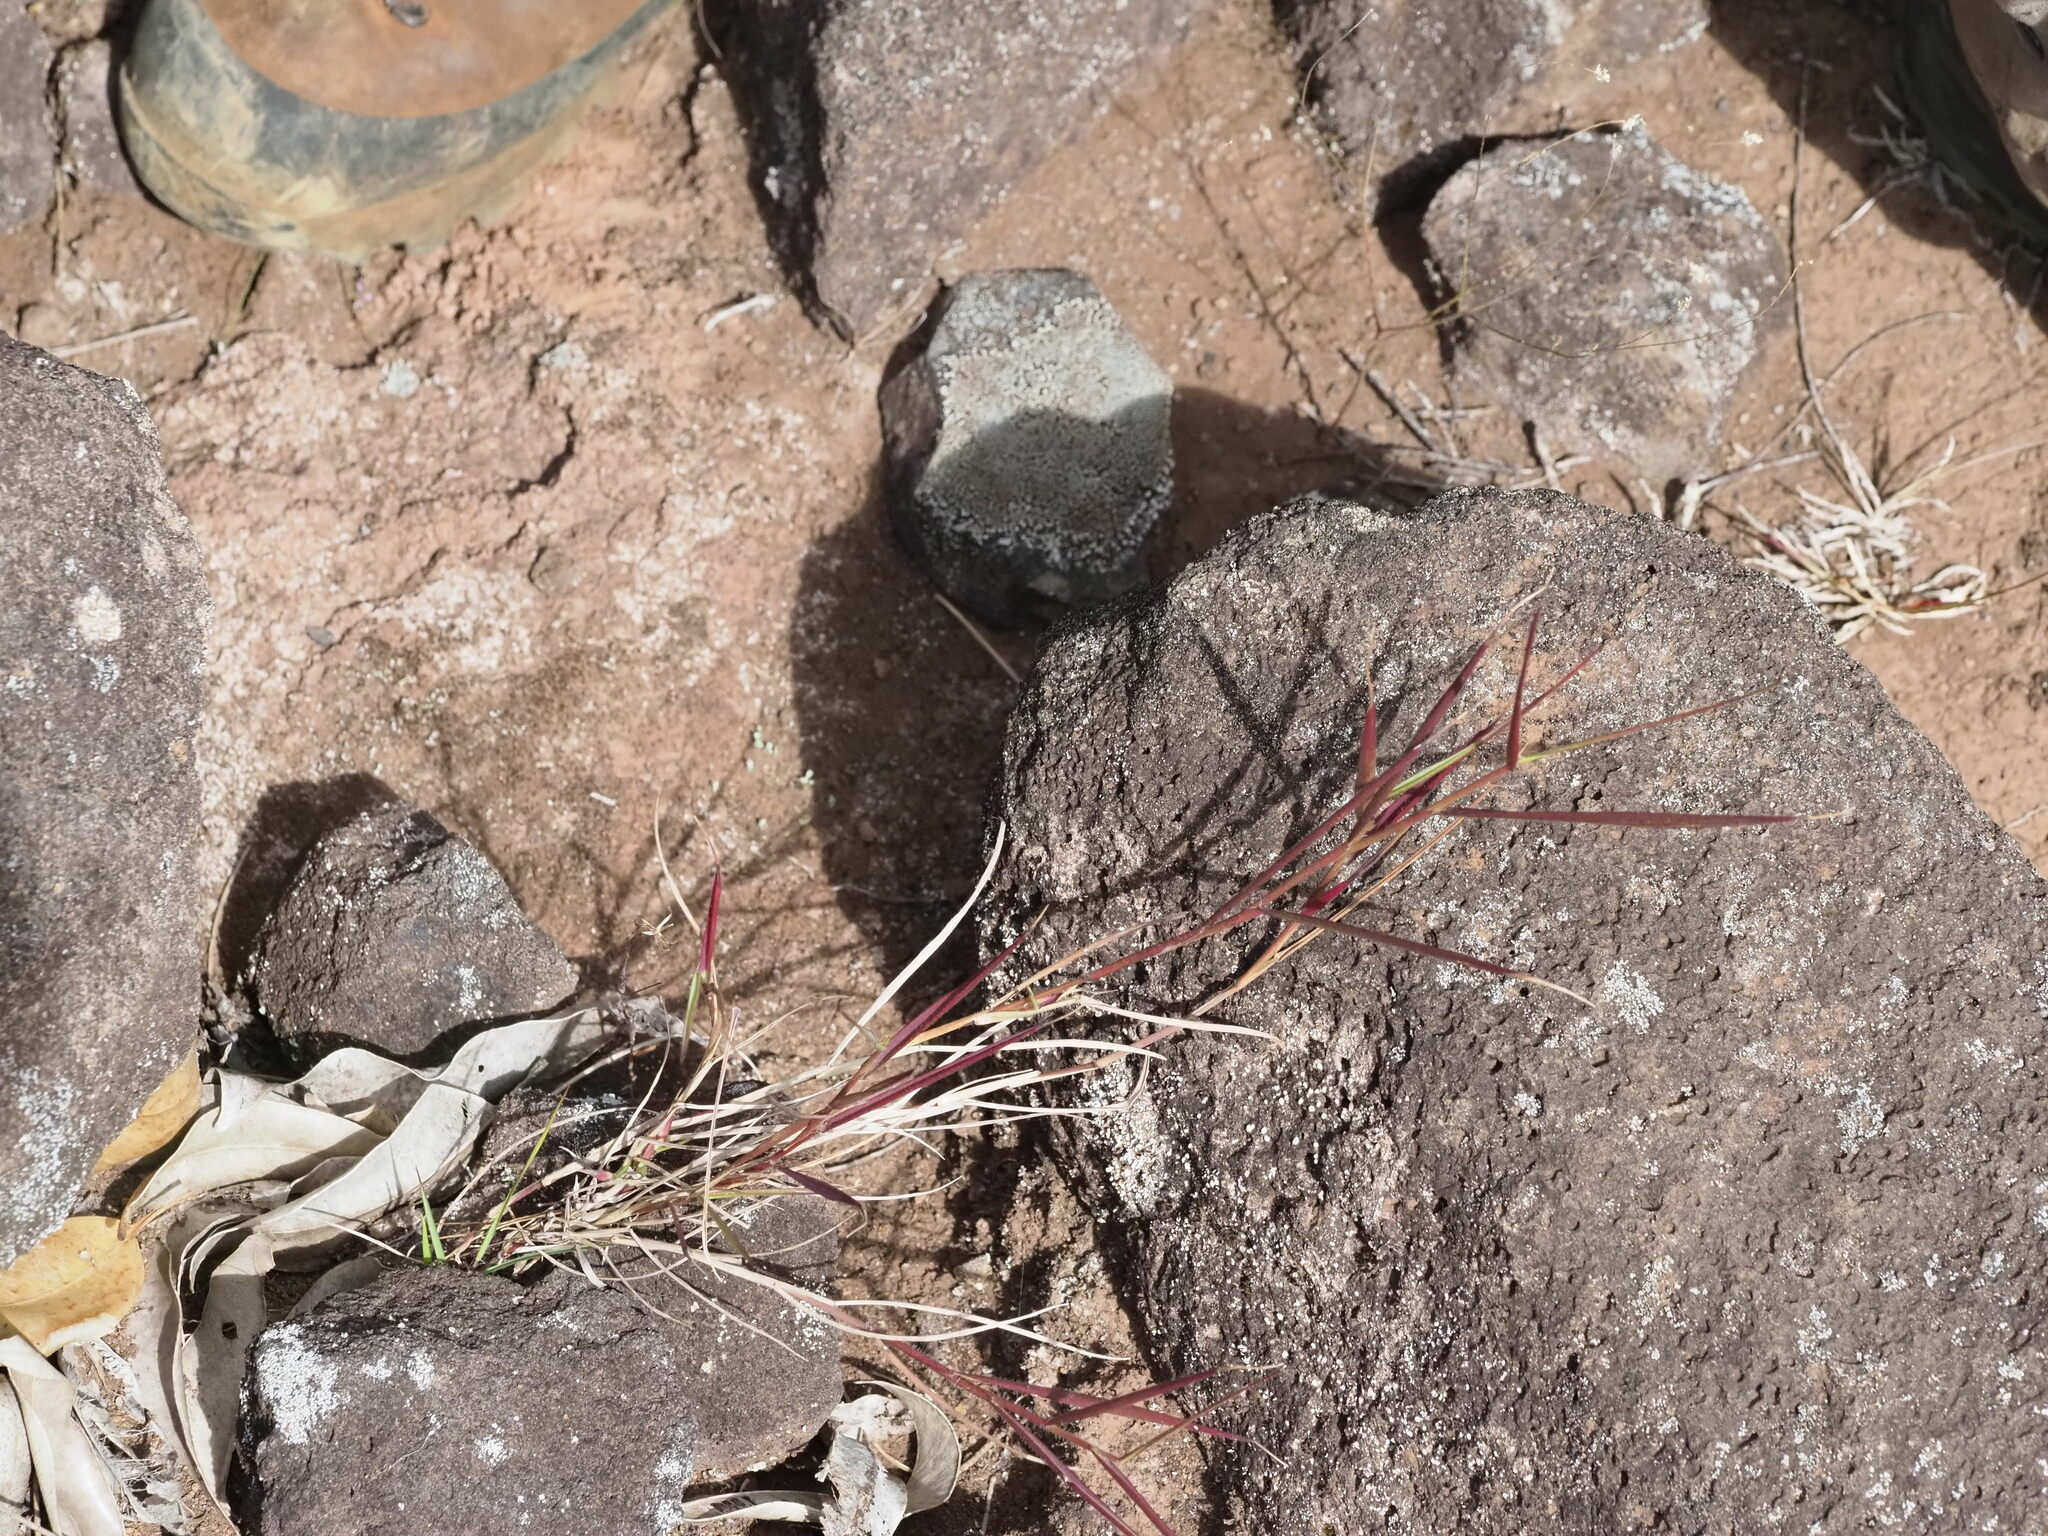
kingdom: Plantae
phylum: Tracheophyta
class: Liliopsida
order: Poales
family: Poaceae
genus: Melinis
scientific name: Melinis repens
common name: Rose natal grass
